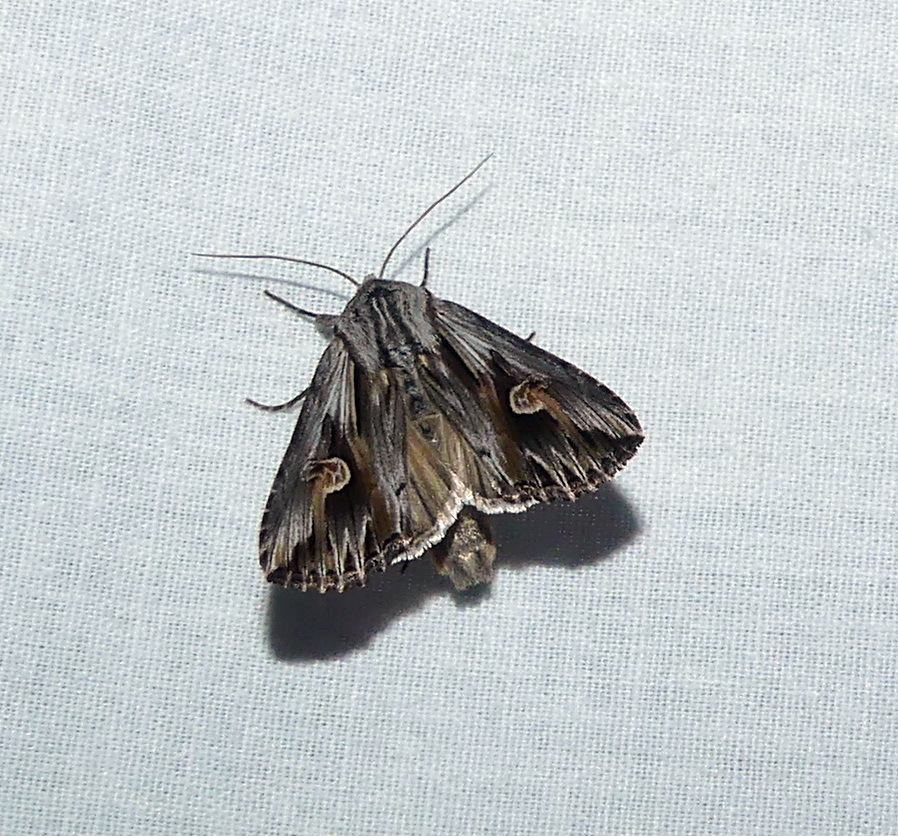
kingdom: Animalia
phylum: Arthropoda
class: Insecta
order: Lepidoptera
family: Noctuidae
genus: Nedra
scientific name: Nedra ramosula
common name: Gray half-spot
